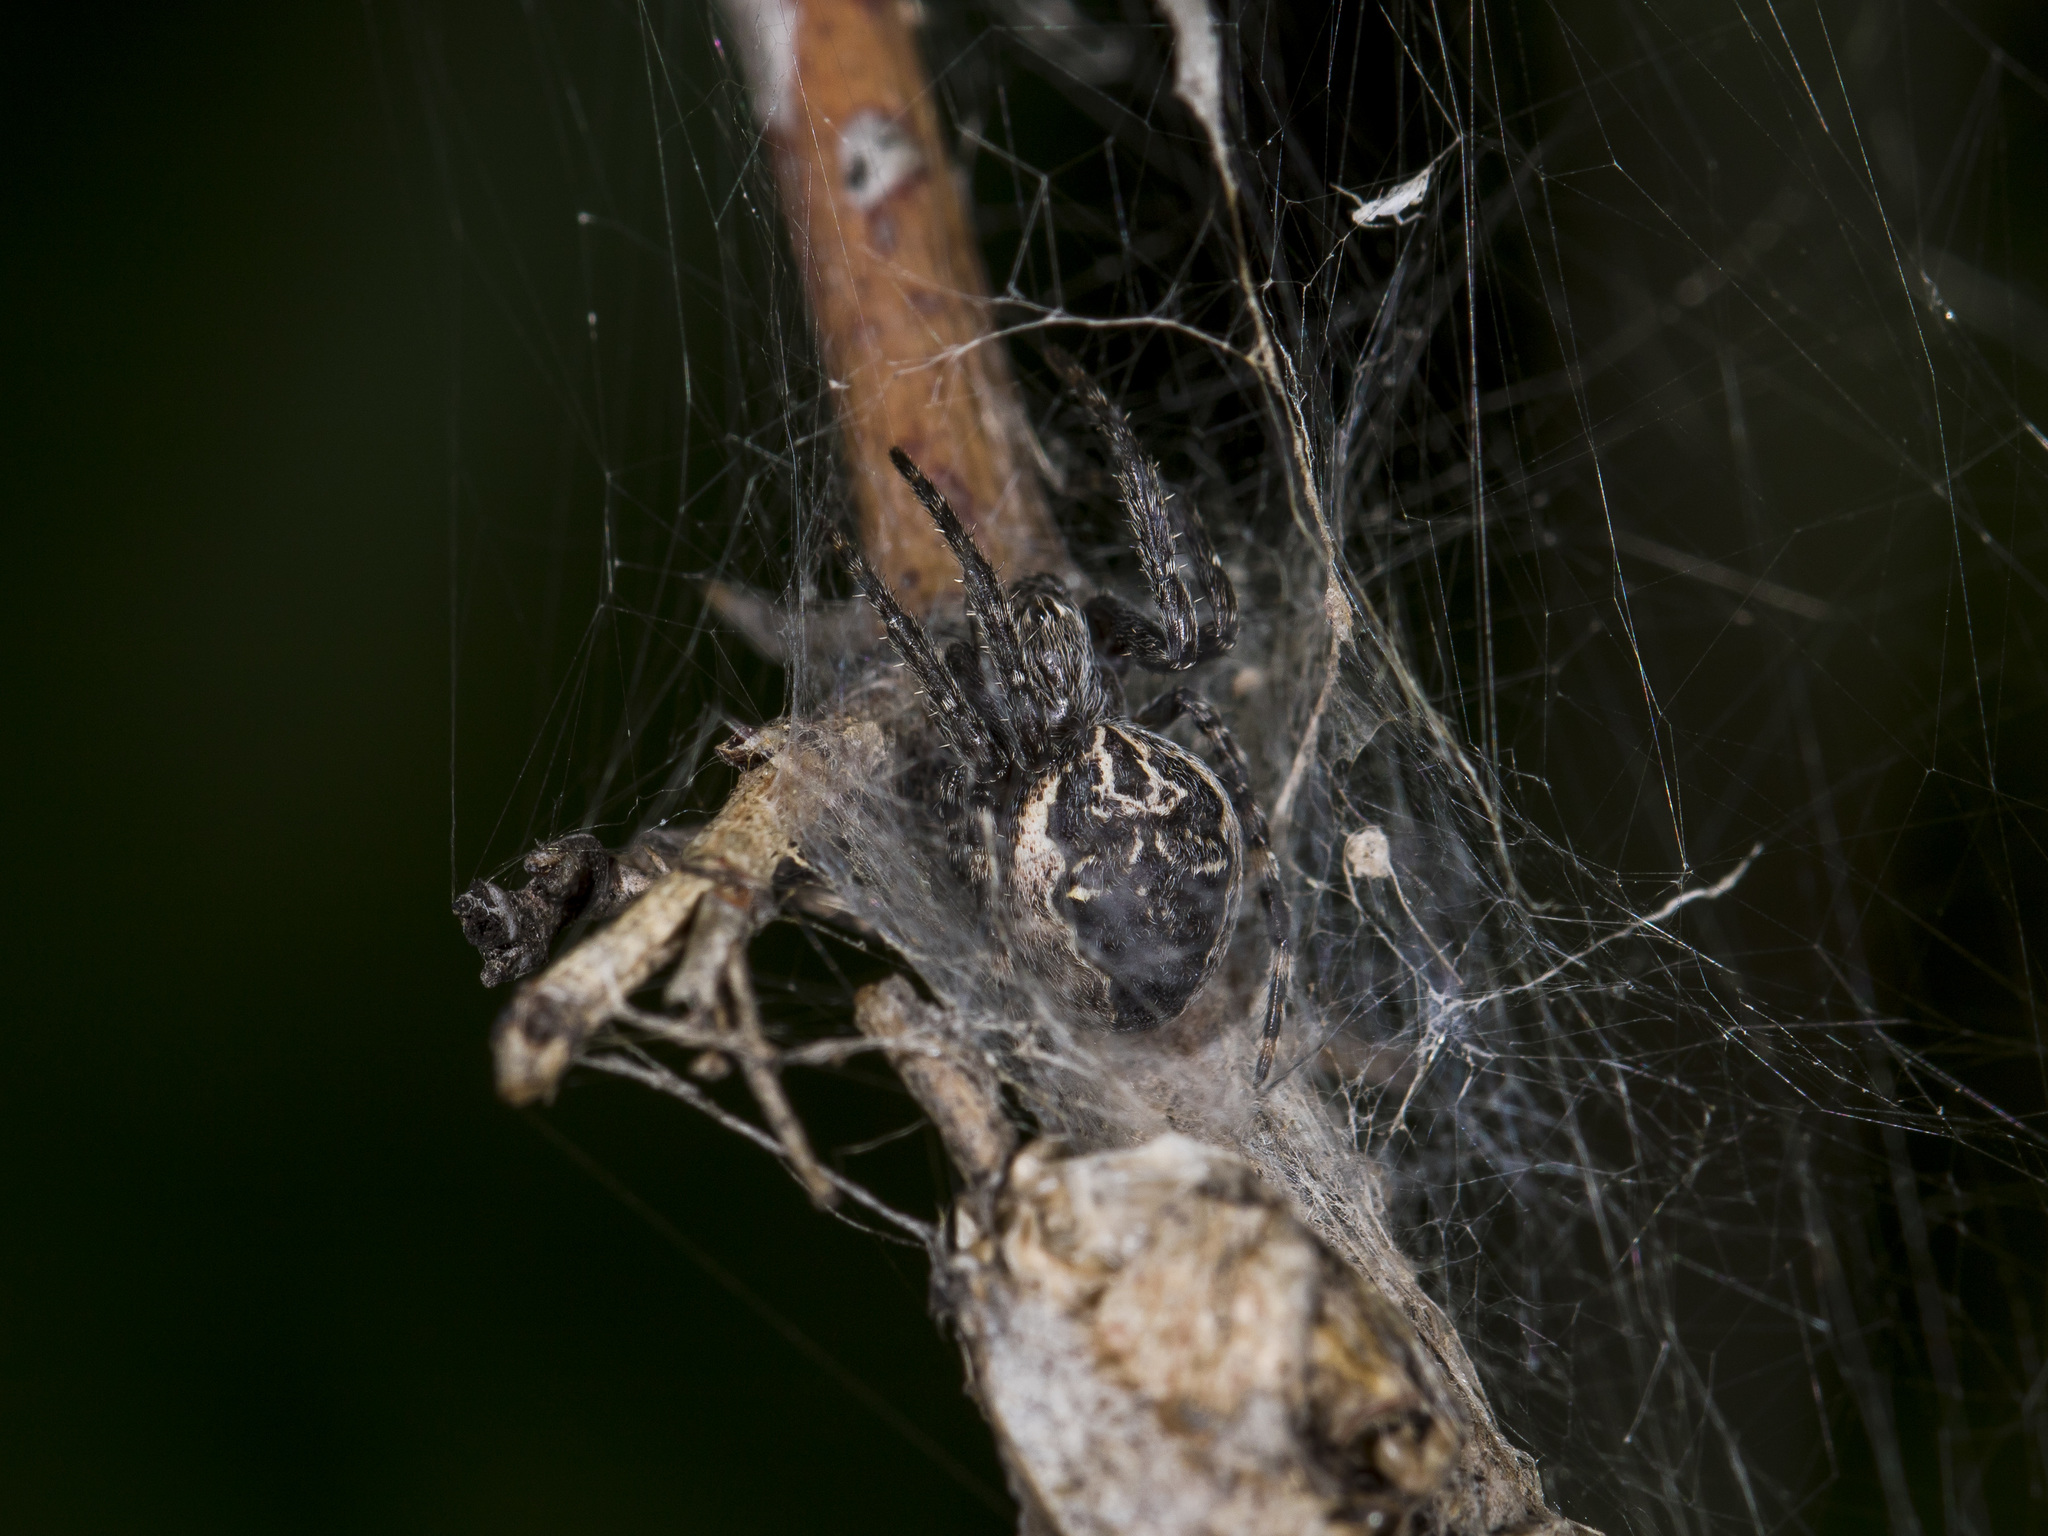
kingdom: Animalia
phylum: Arthropoda
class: Arachnida
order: Araneae
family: Araneidae
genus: Larinioides
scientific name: Larinioides patagiatus
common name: Ornamental orbweaver
